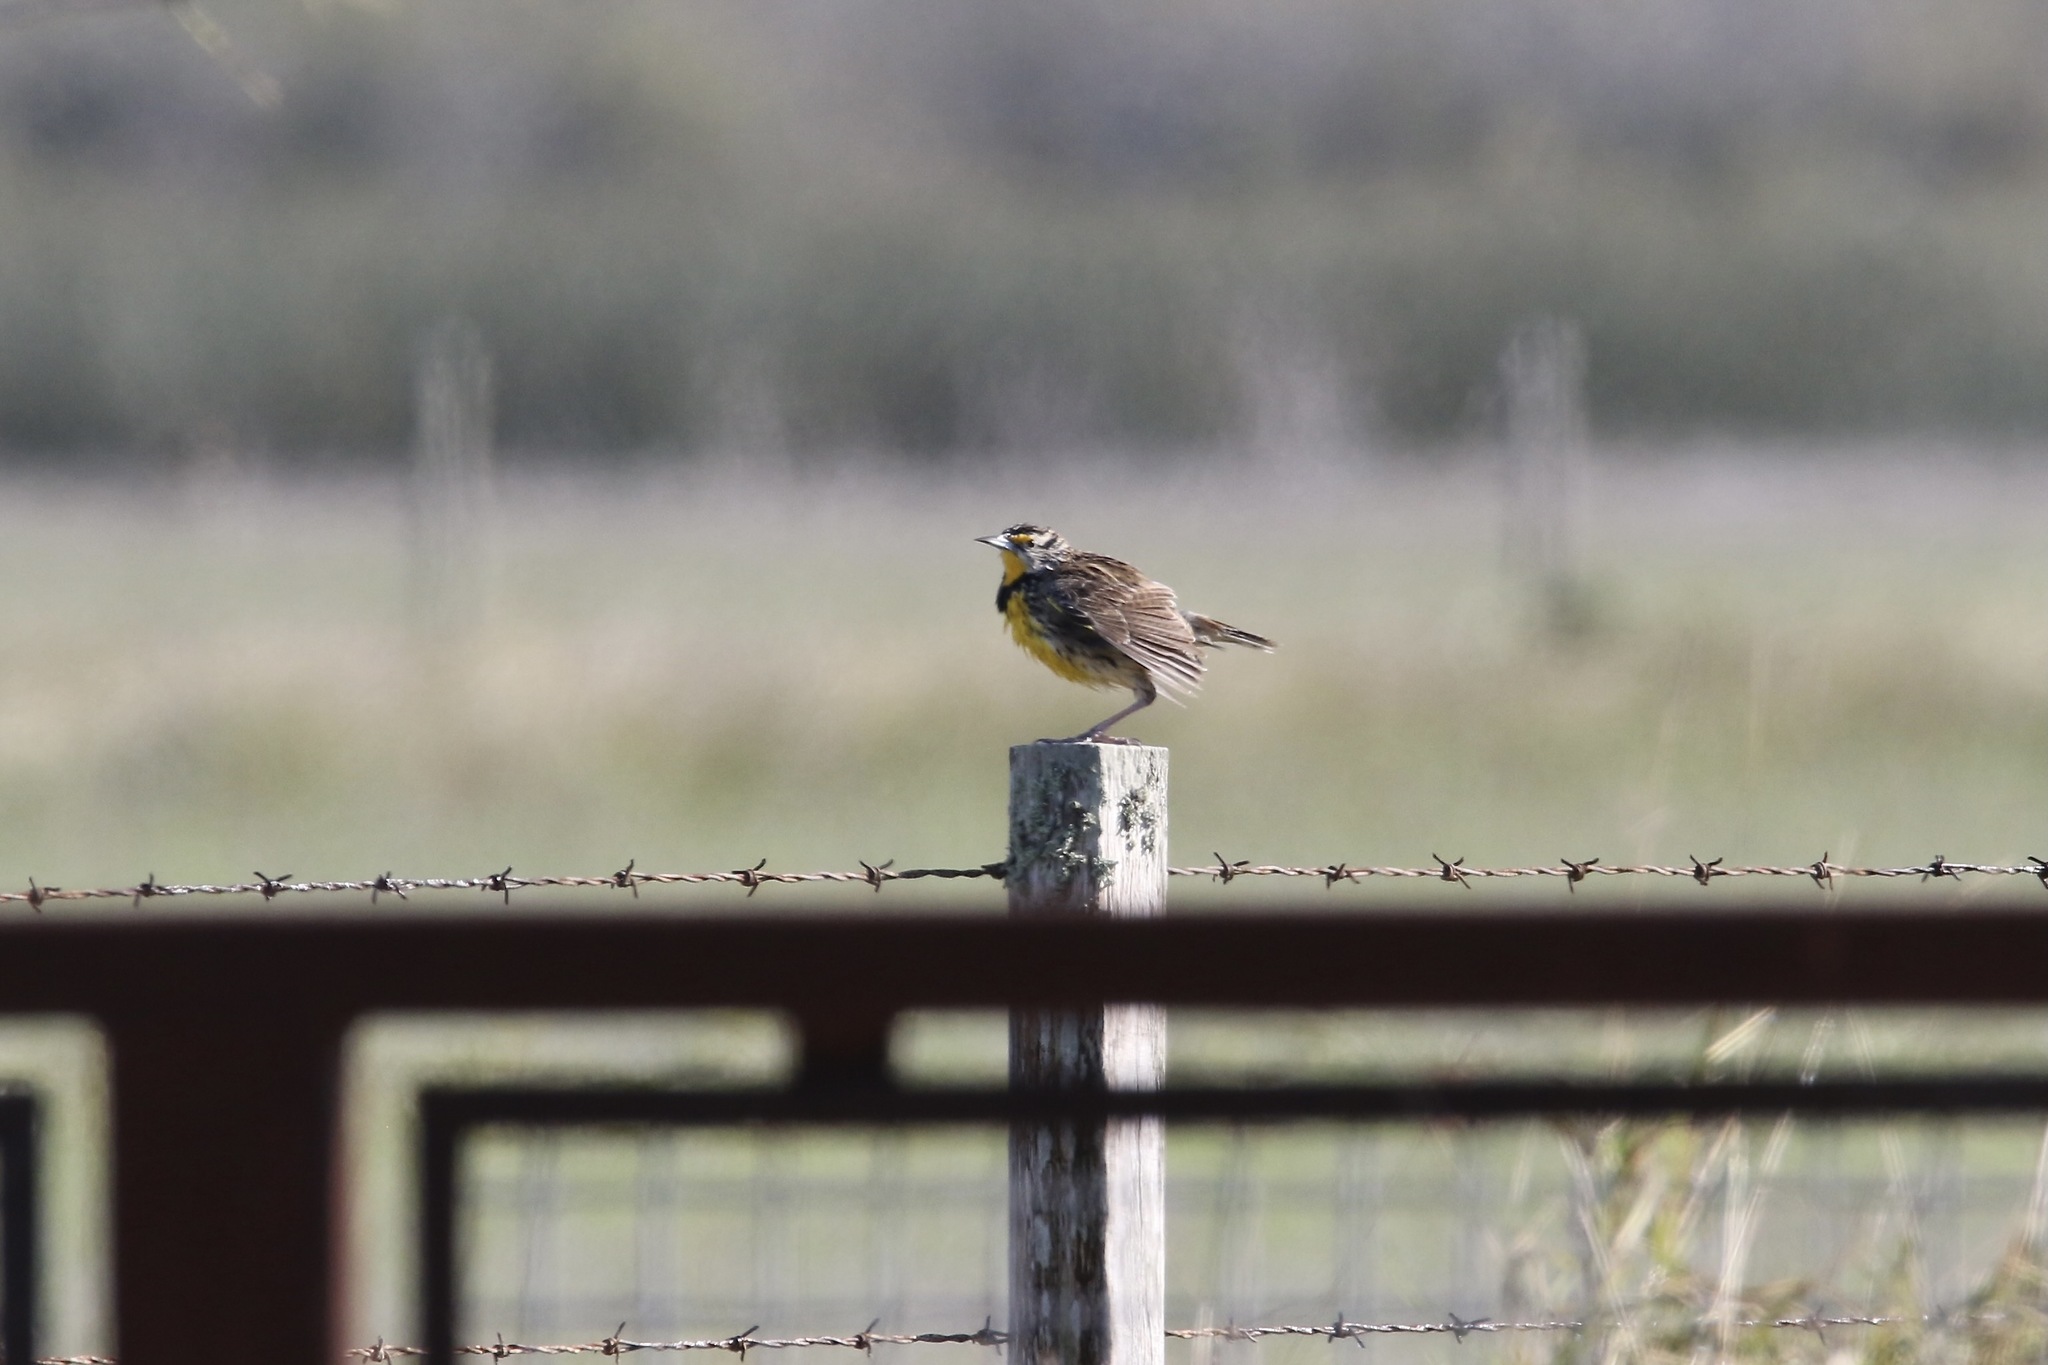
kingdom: Animalia
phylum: Chordata
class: Aves
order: Passeriformes
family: Icteridae
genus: Sturnella
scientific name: Sturnella magna
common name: Eastern meadowlark
